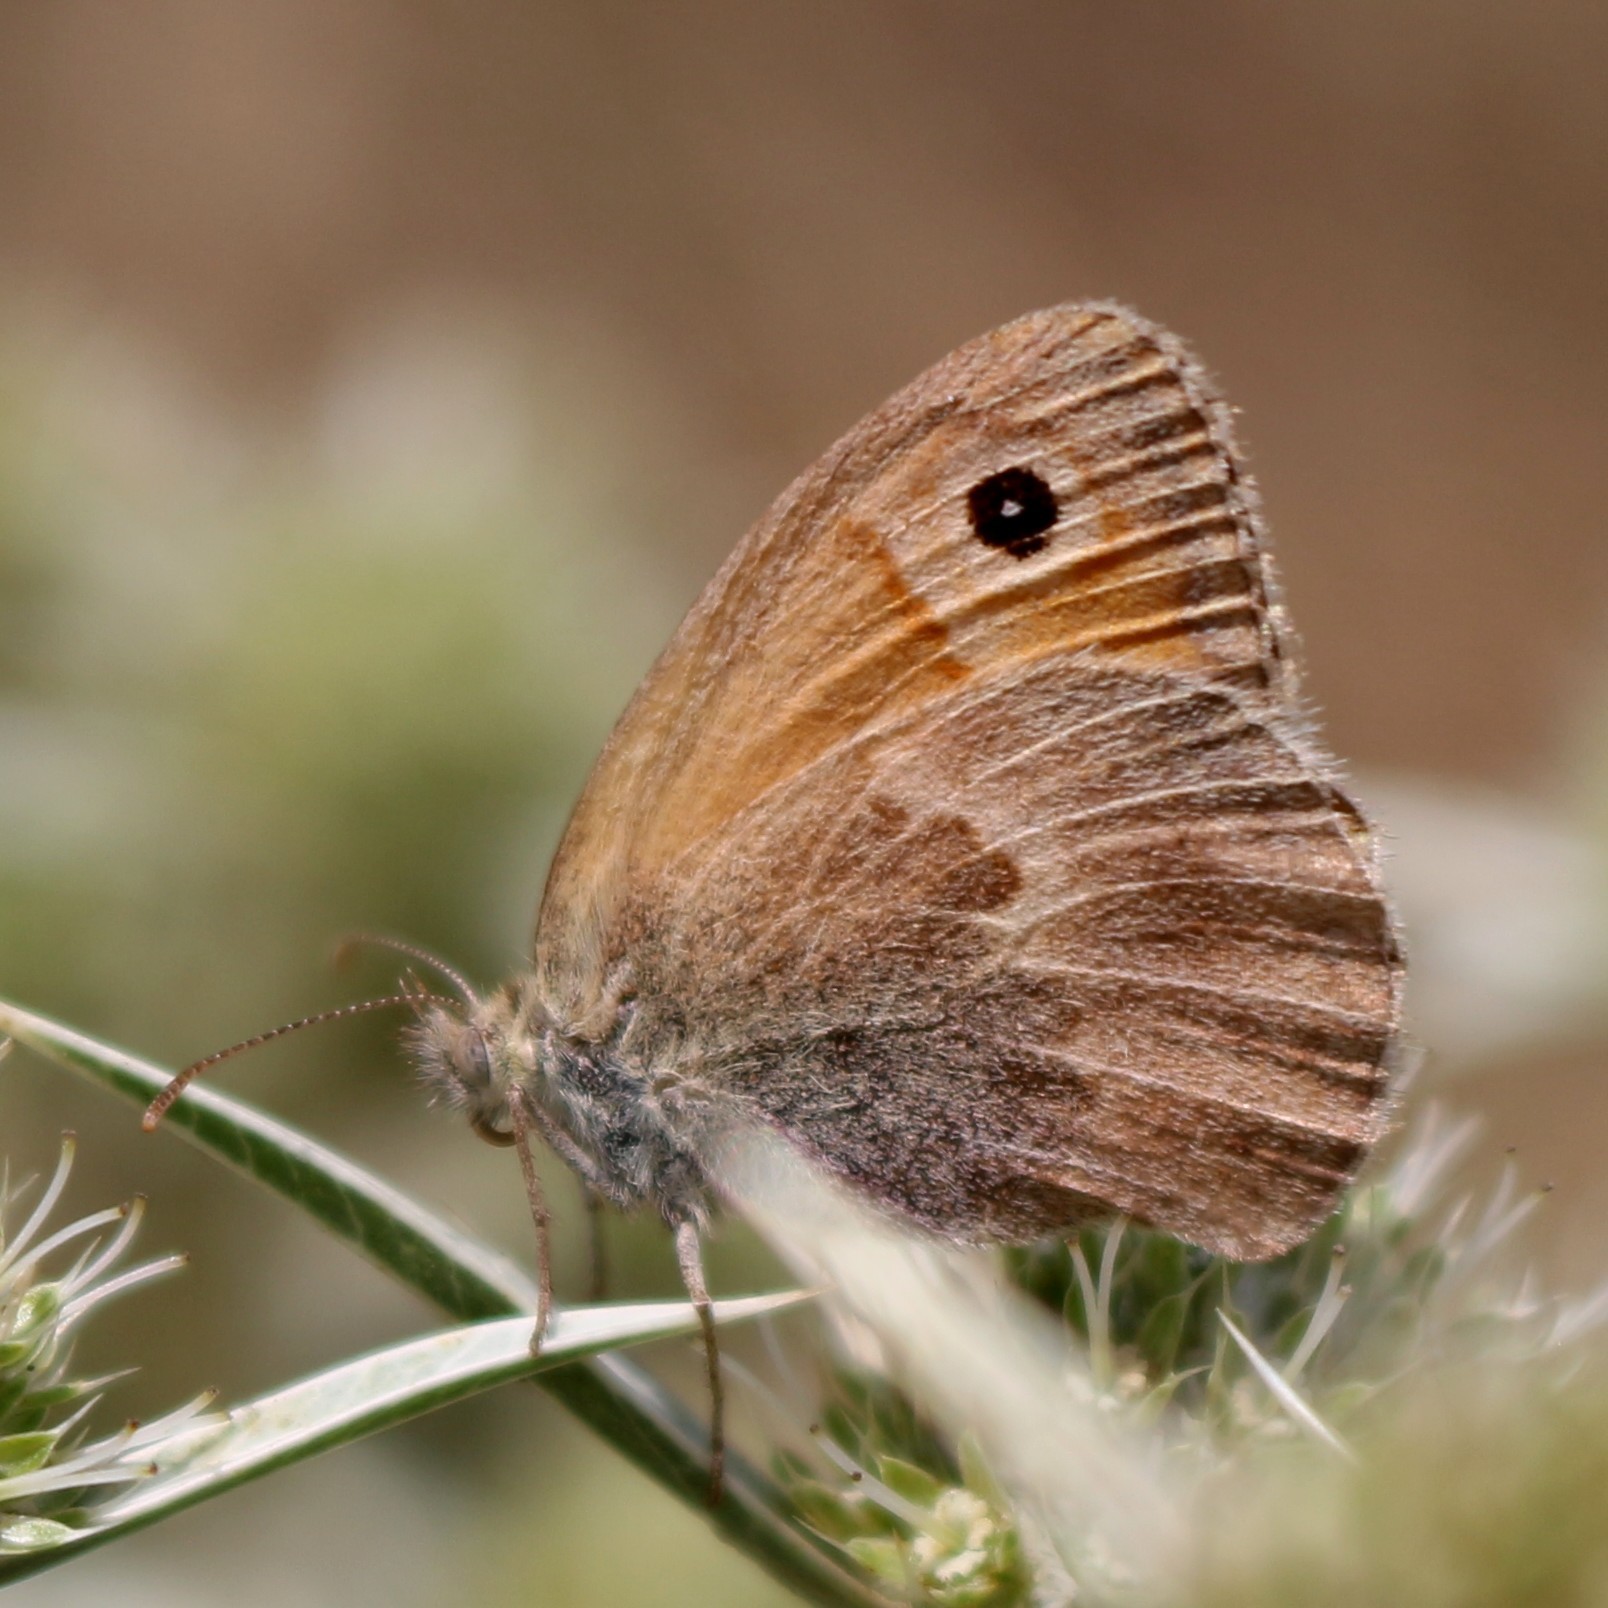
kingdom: Animalia
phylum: Arthropoda
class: Insecta
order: Lepidoptera
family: Nymphalidae
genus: Coenonympha
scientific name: Coenonympha pamphilus
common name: Small heath
